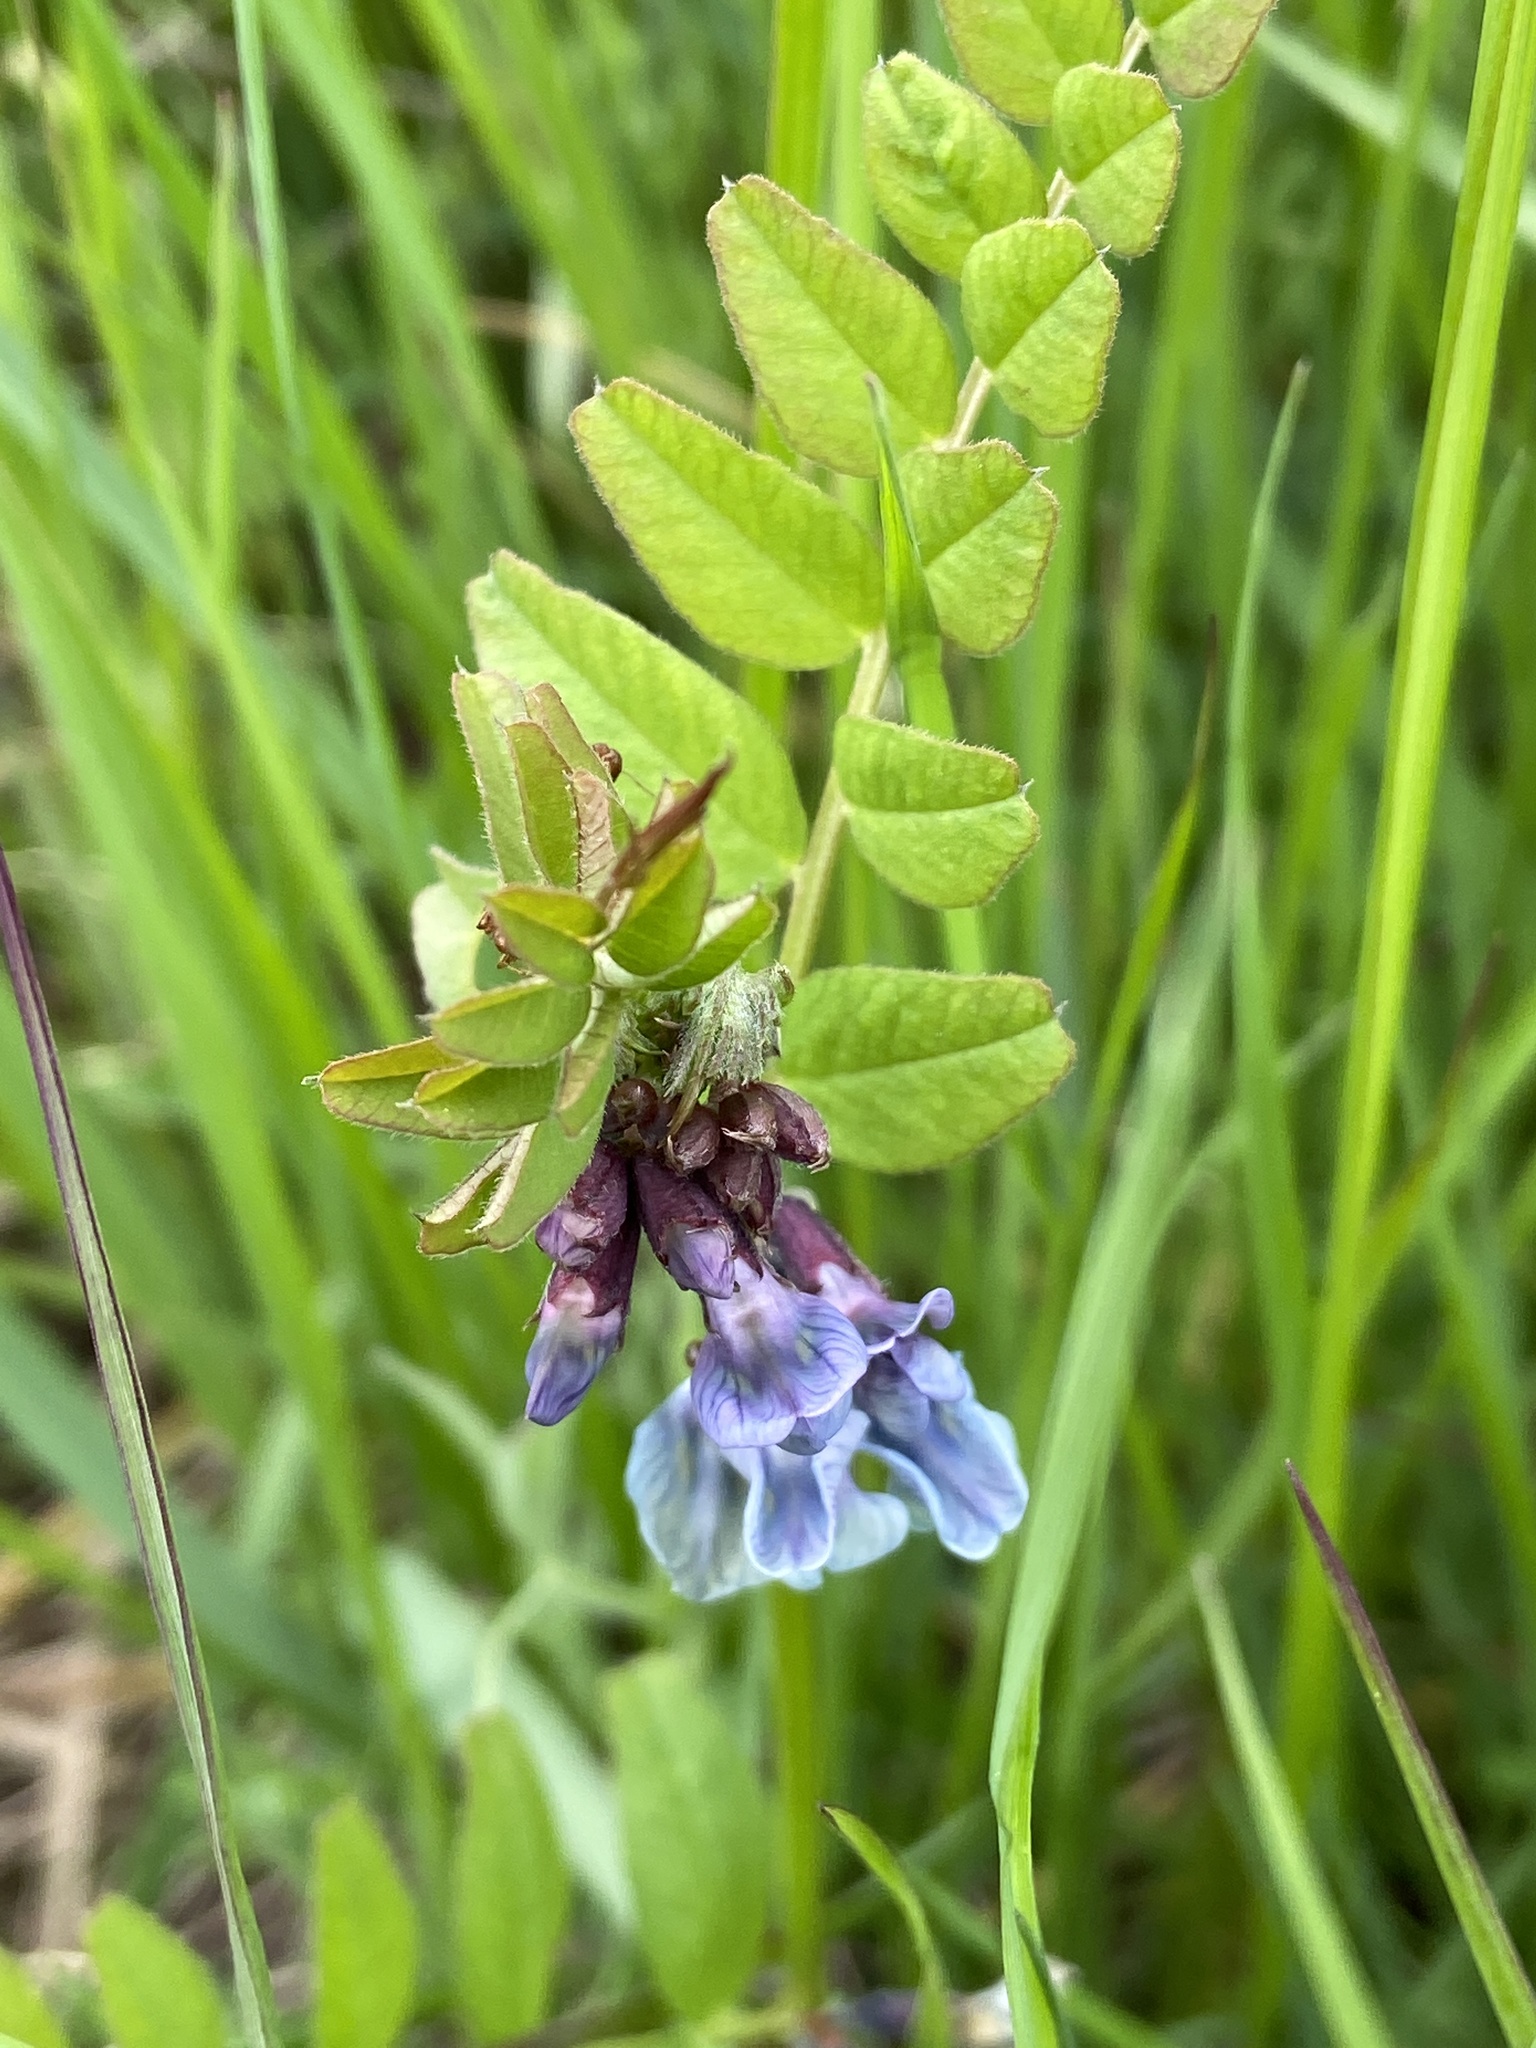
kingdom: Plantae
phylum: Tracheophyta
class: Magnoliopsida
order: Fabales
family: Fabaceae
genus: Vicia
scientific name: Vicia sepium
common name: Bush vetch
